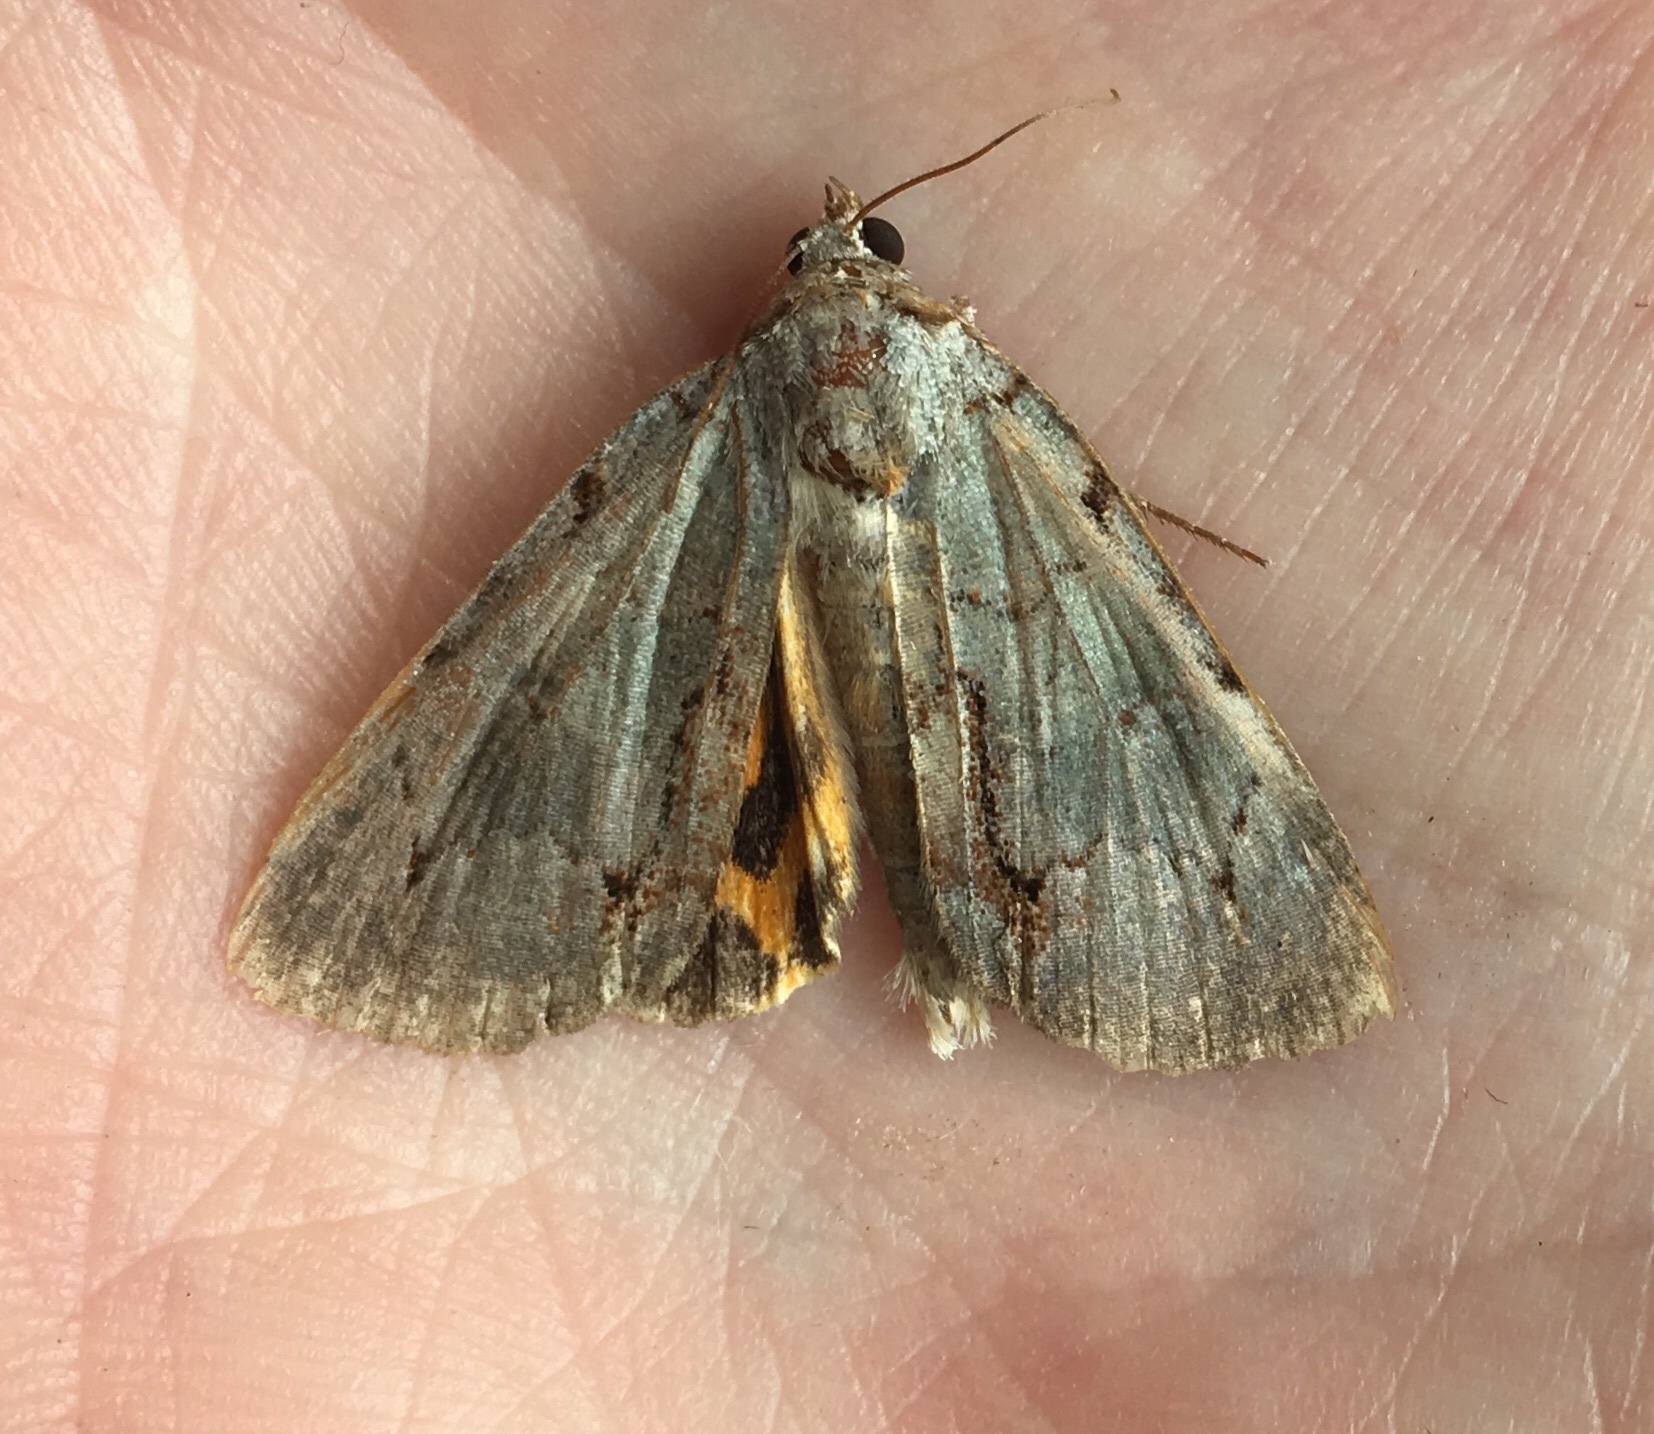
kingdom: Animalia
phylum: Arthropoda
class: Insecta
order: Lepidoptera
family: Erebidae
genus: Catocala
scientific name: Catocala grynea
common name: Woody underwing
